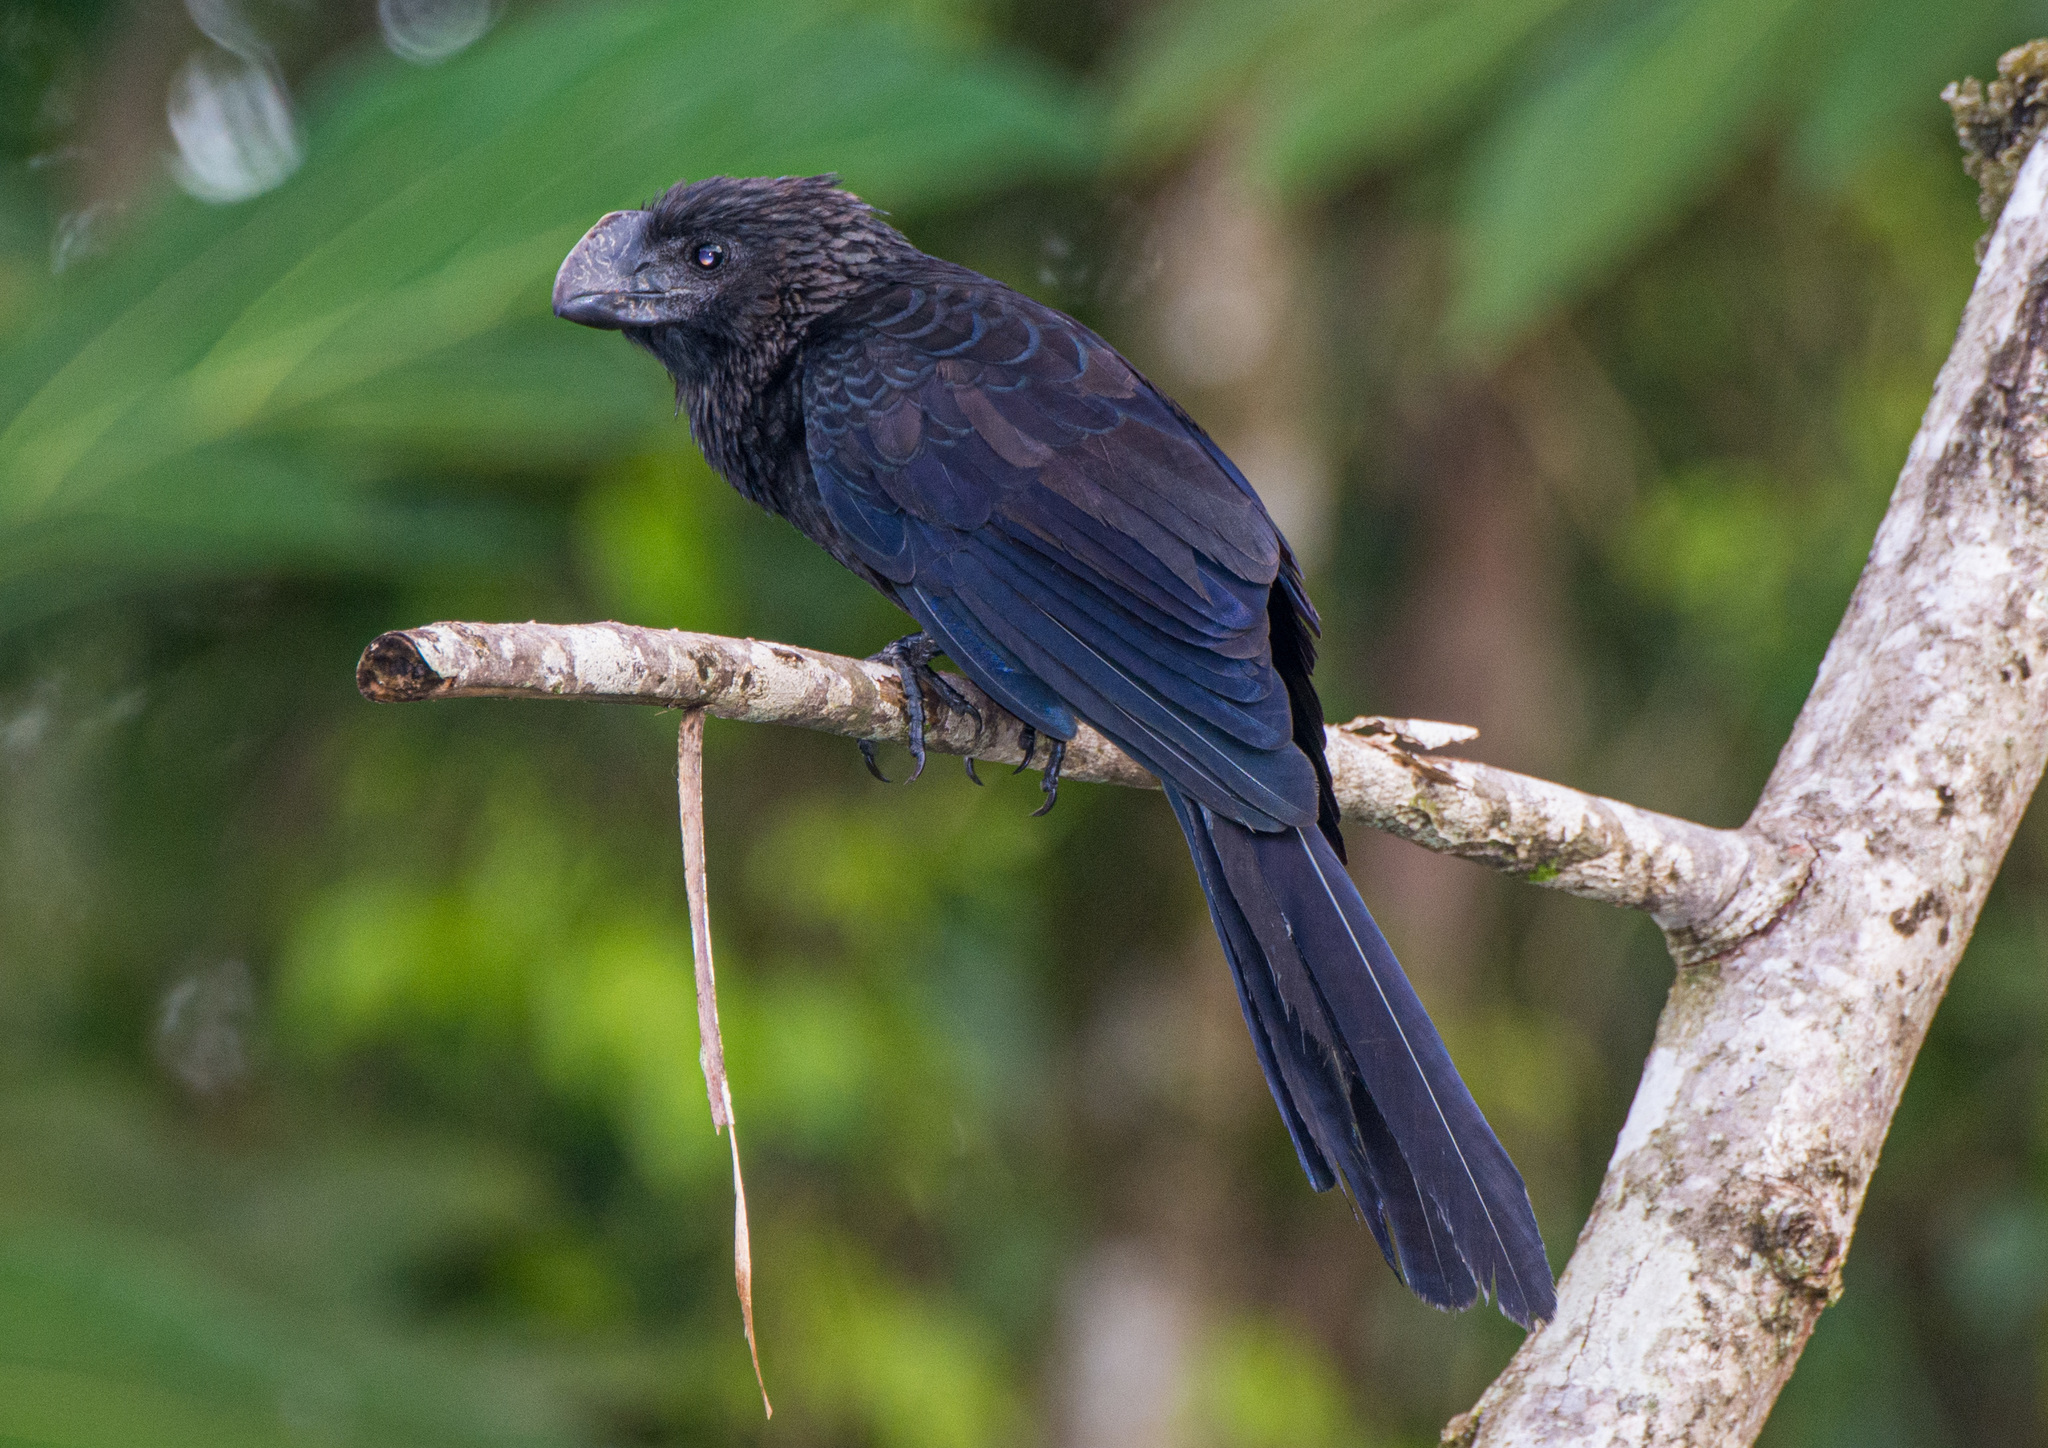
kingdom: Animalia
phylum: Chordata
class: Aves
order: Cuculiformes
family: Cuculidae
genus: Crotophaga
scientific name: Crotophaga ani
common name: Smooth-billed ani
